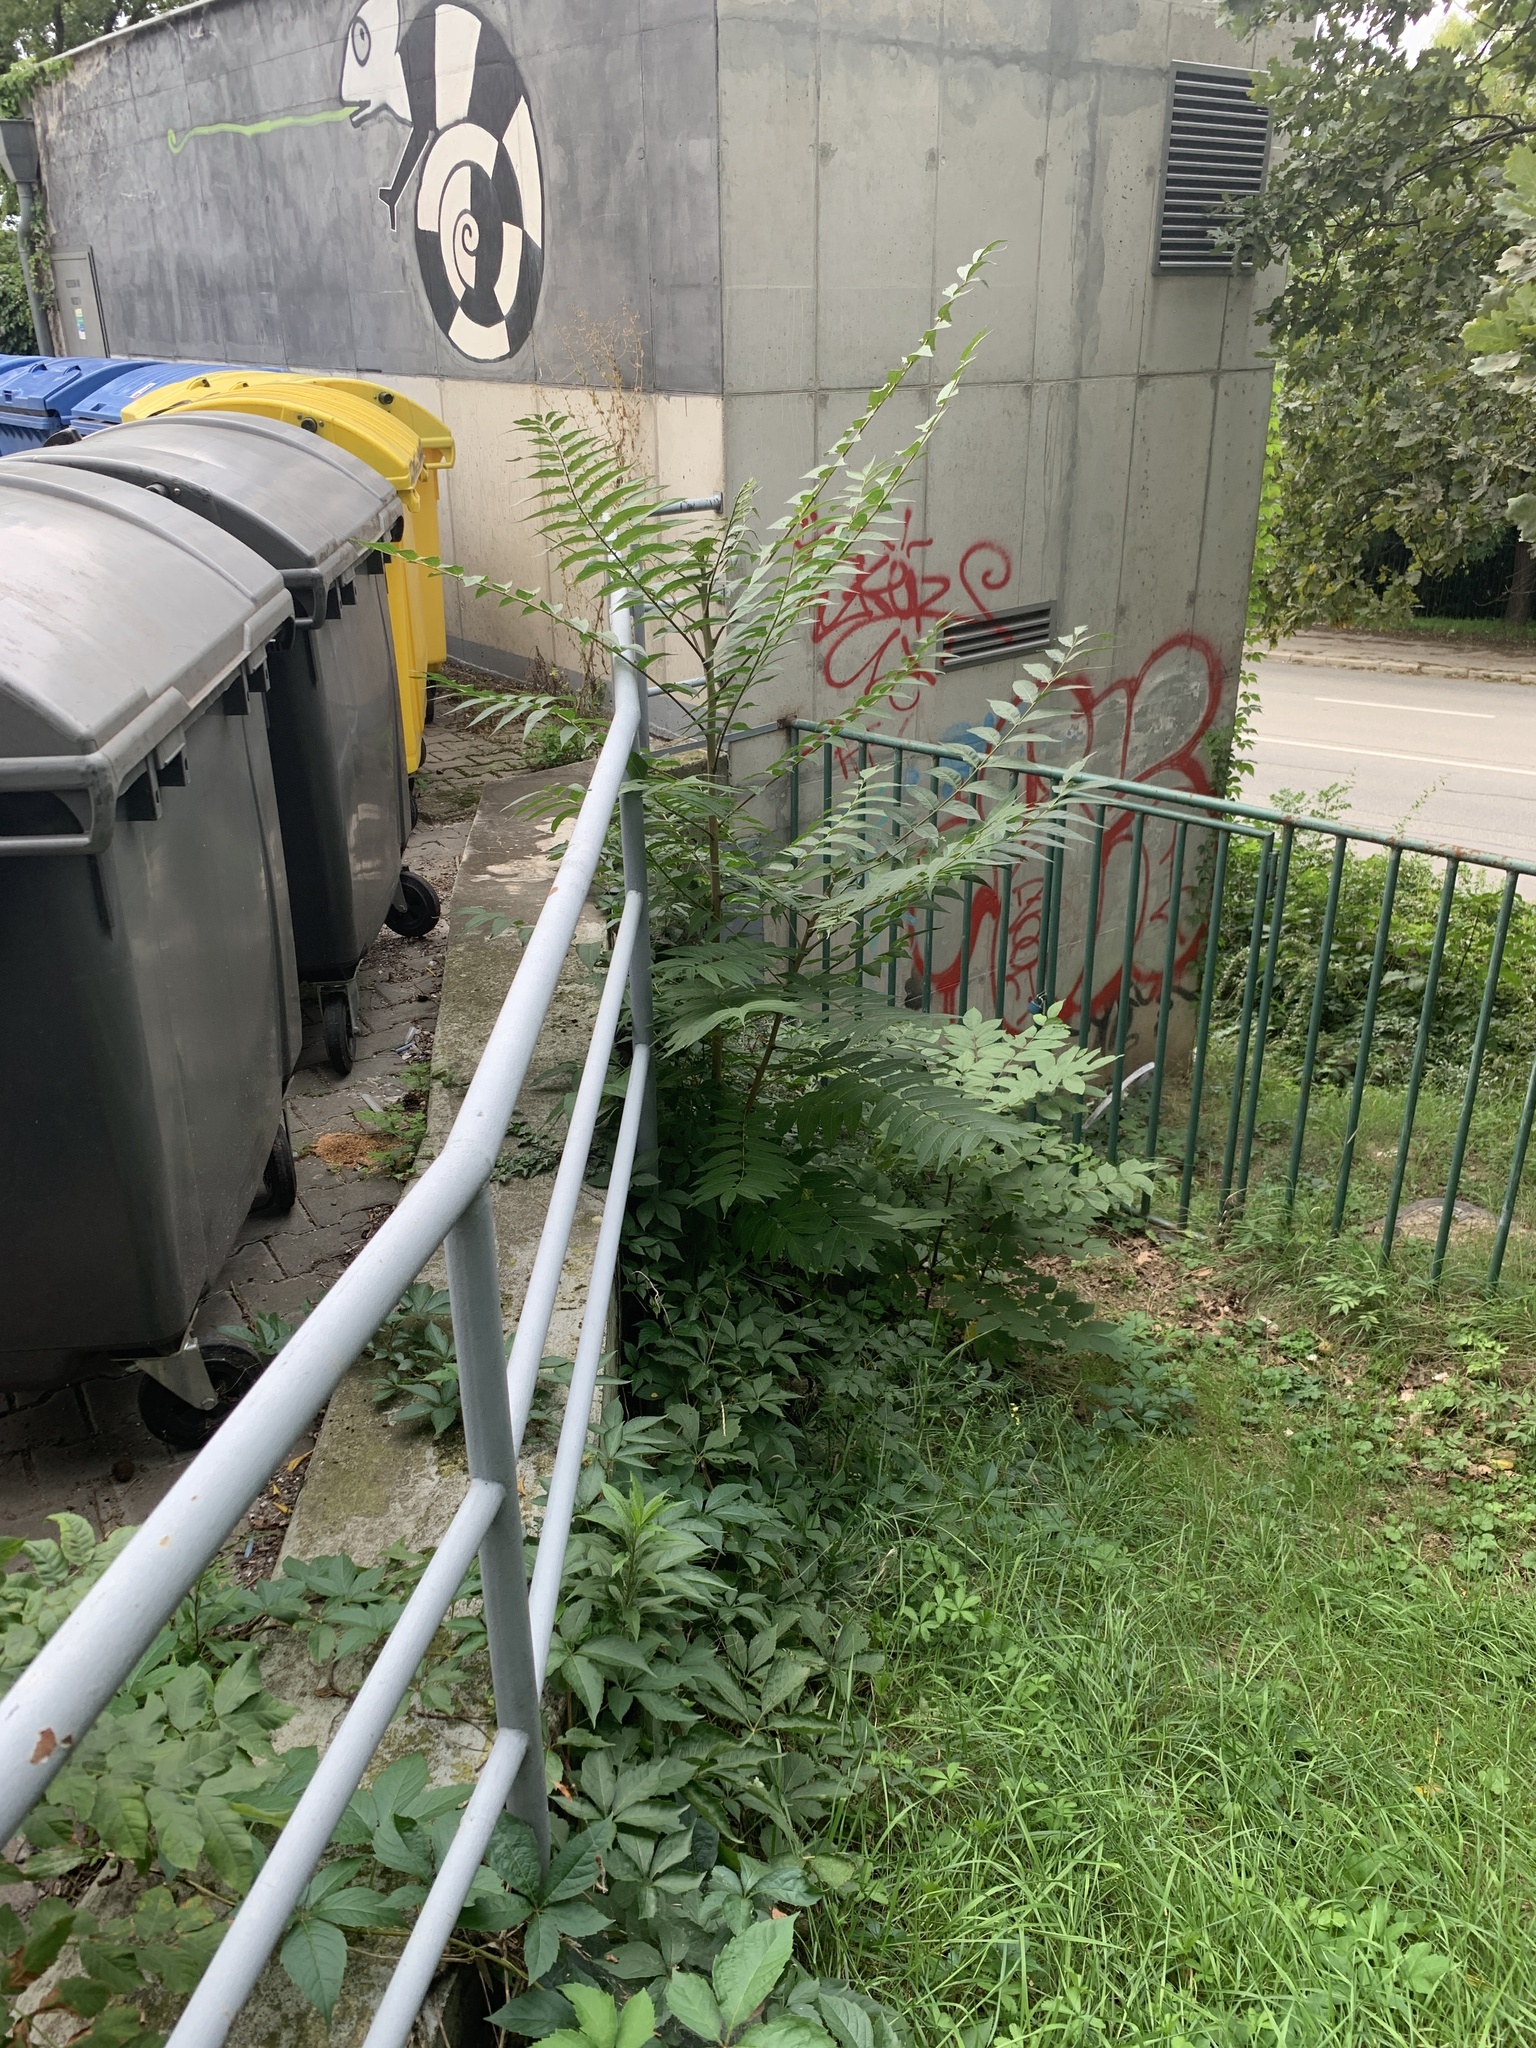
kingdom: Plantae
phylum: Tracheophyta
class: Magnoliopsida
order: Sapindales
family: Simaroubaceae
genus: Ailanthus
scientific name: Ailanthus altissima
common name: Tree-of-heaven
